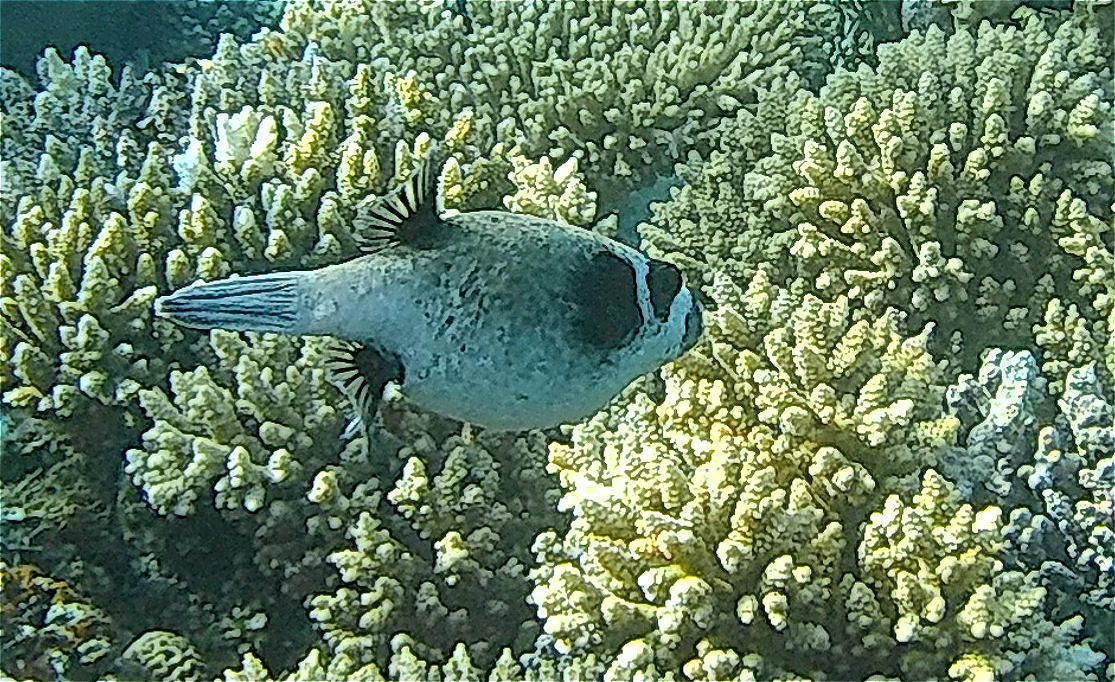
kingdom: Animalia
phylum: Chordata
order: Tetraodontiformes
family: Tetraodontidae
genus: Arothron
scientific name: Arothron diadematus
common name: Masked puffer
